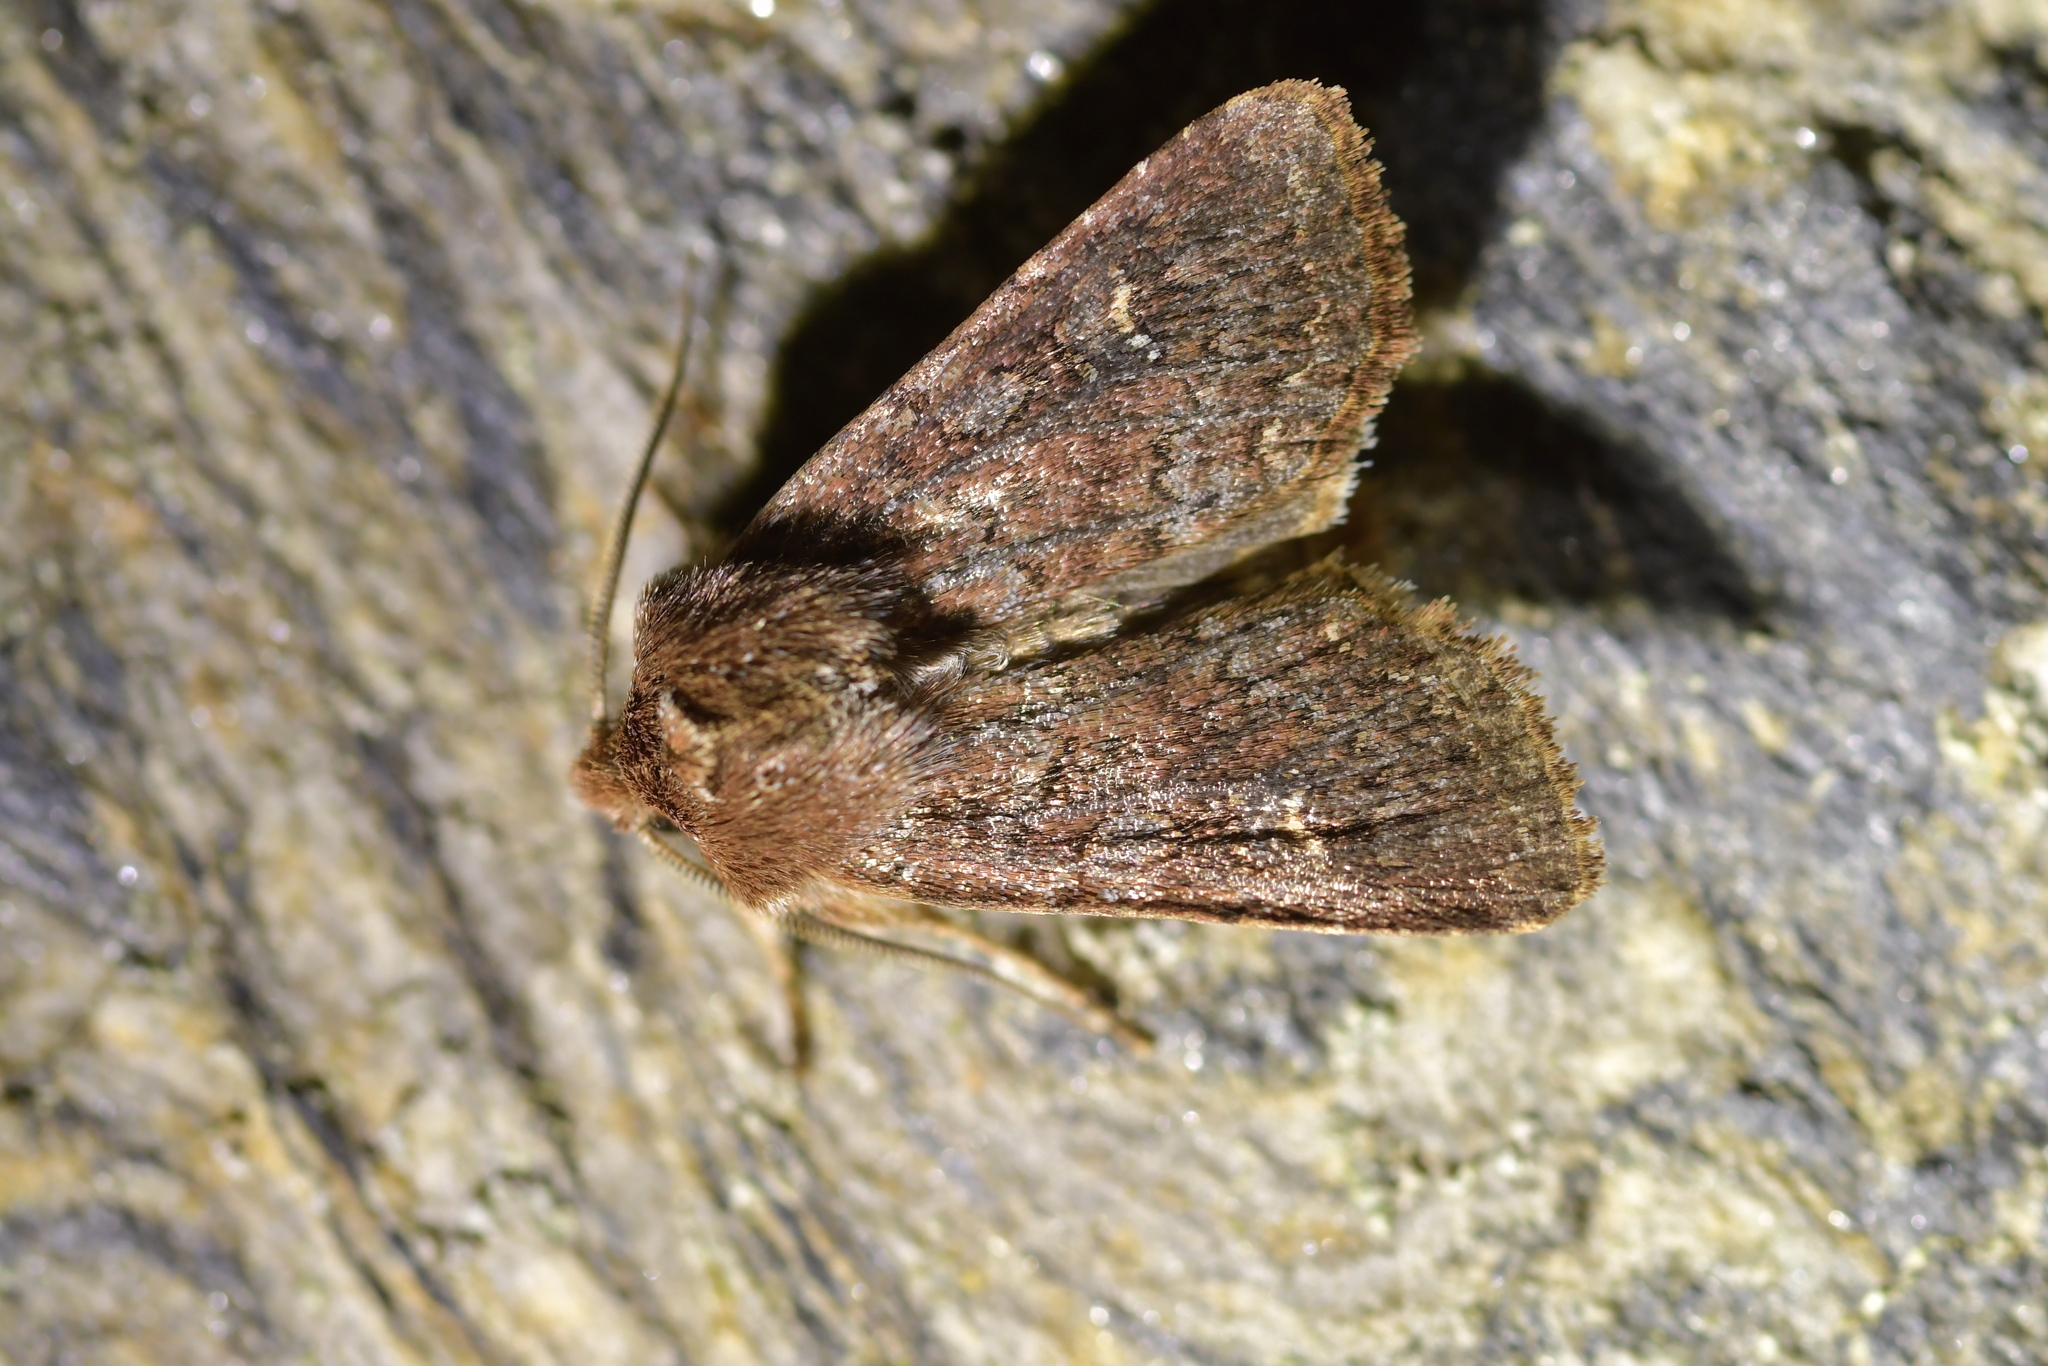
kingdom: Animalia
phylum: Arthropoda
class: Insecta
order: Lepidoptera
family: Noctuidae
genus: Ichneutica
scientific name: Ichneutica agorastis
